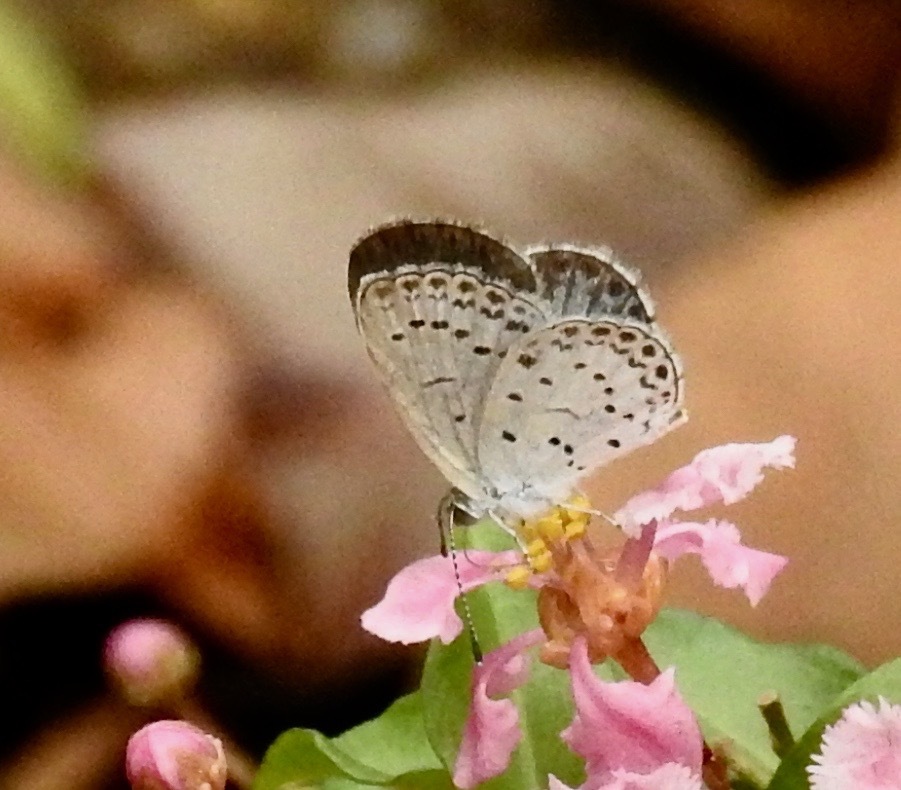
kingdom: Animalia
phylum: Arthropoda
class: Insecta
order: Lepidoptera
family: Lycaenidae
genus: Pseudozizeeria
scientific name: Pseudozizeeria maha
